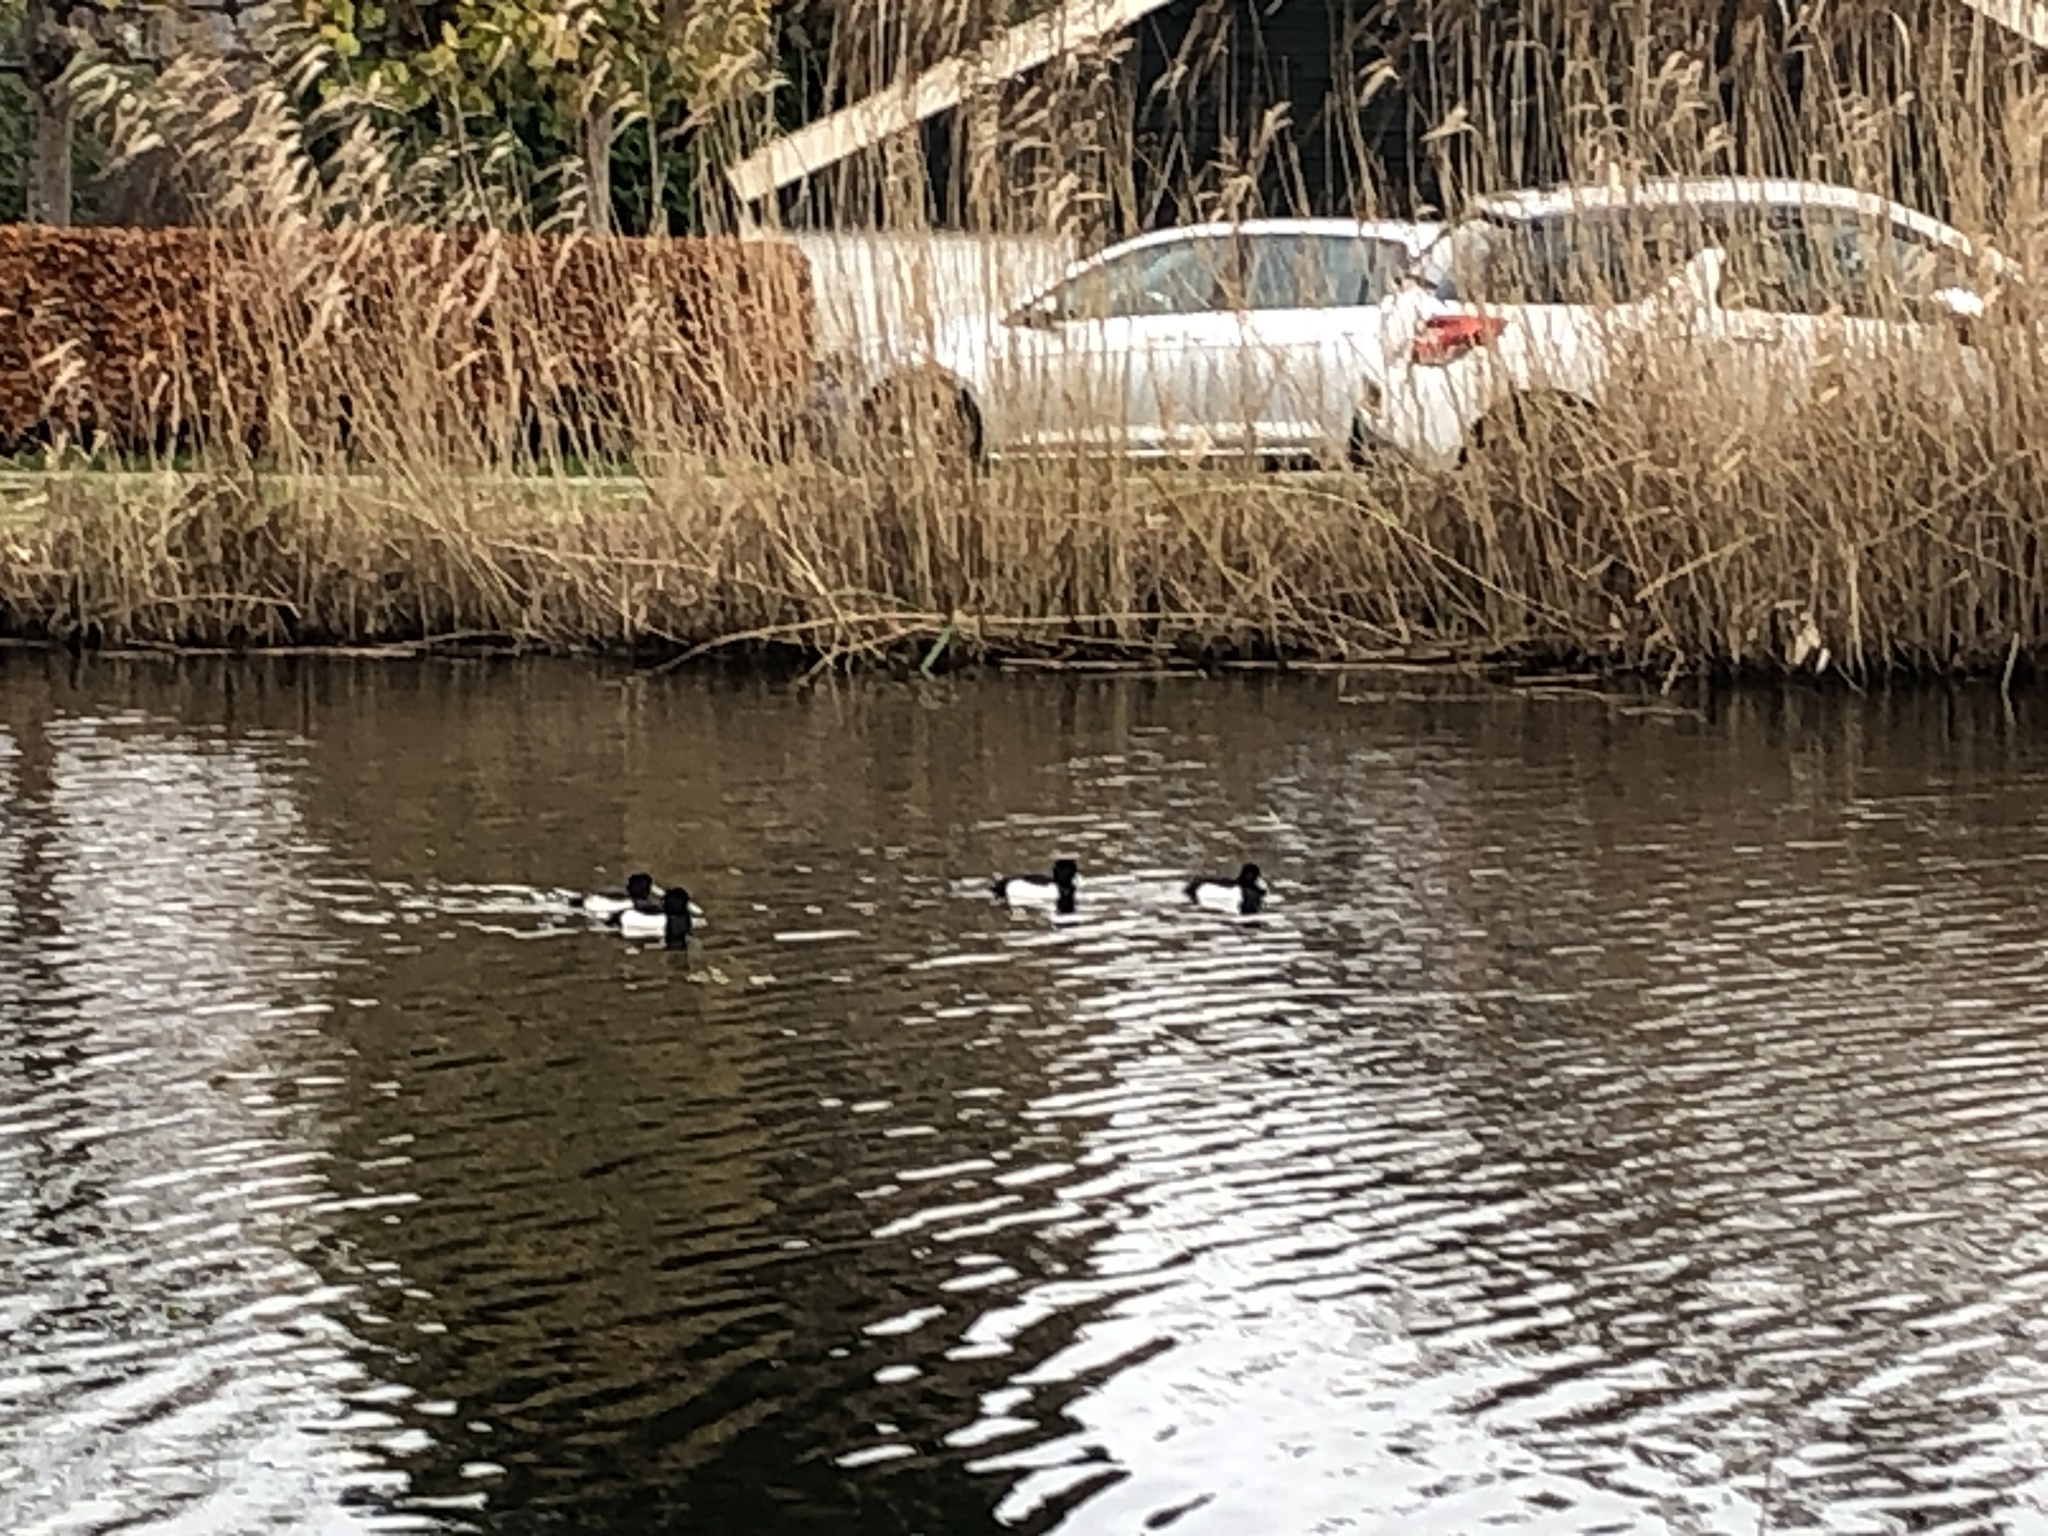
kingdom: Animalia
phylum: Chordata
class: Aves
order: Anseriformes
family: Anatidae
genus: Aythya
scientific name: Aythya fuligula
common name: Tufted duck
